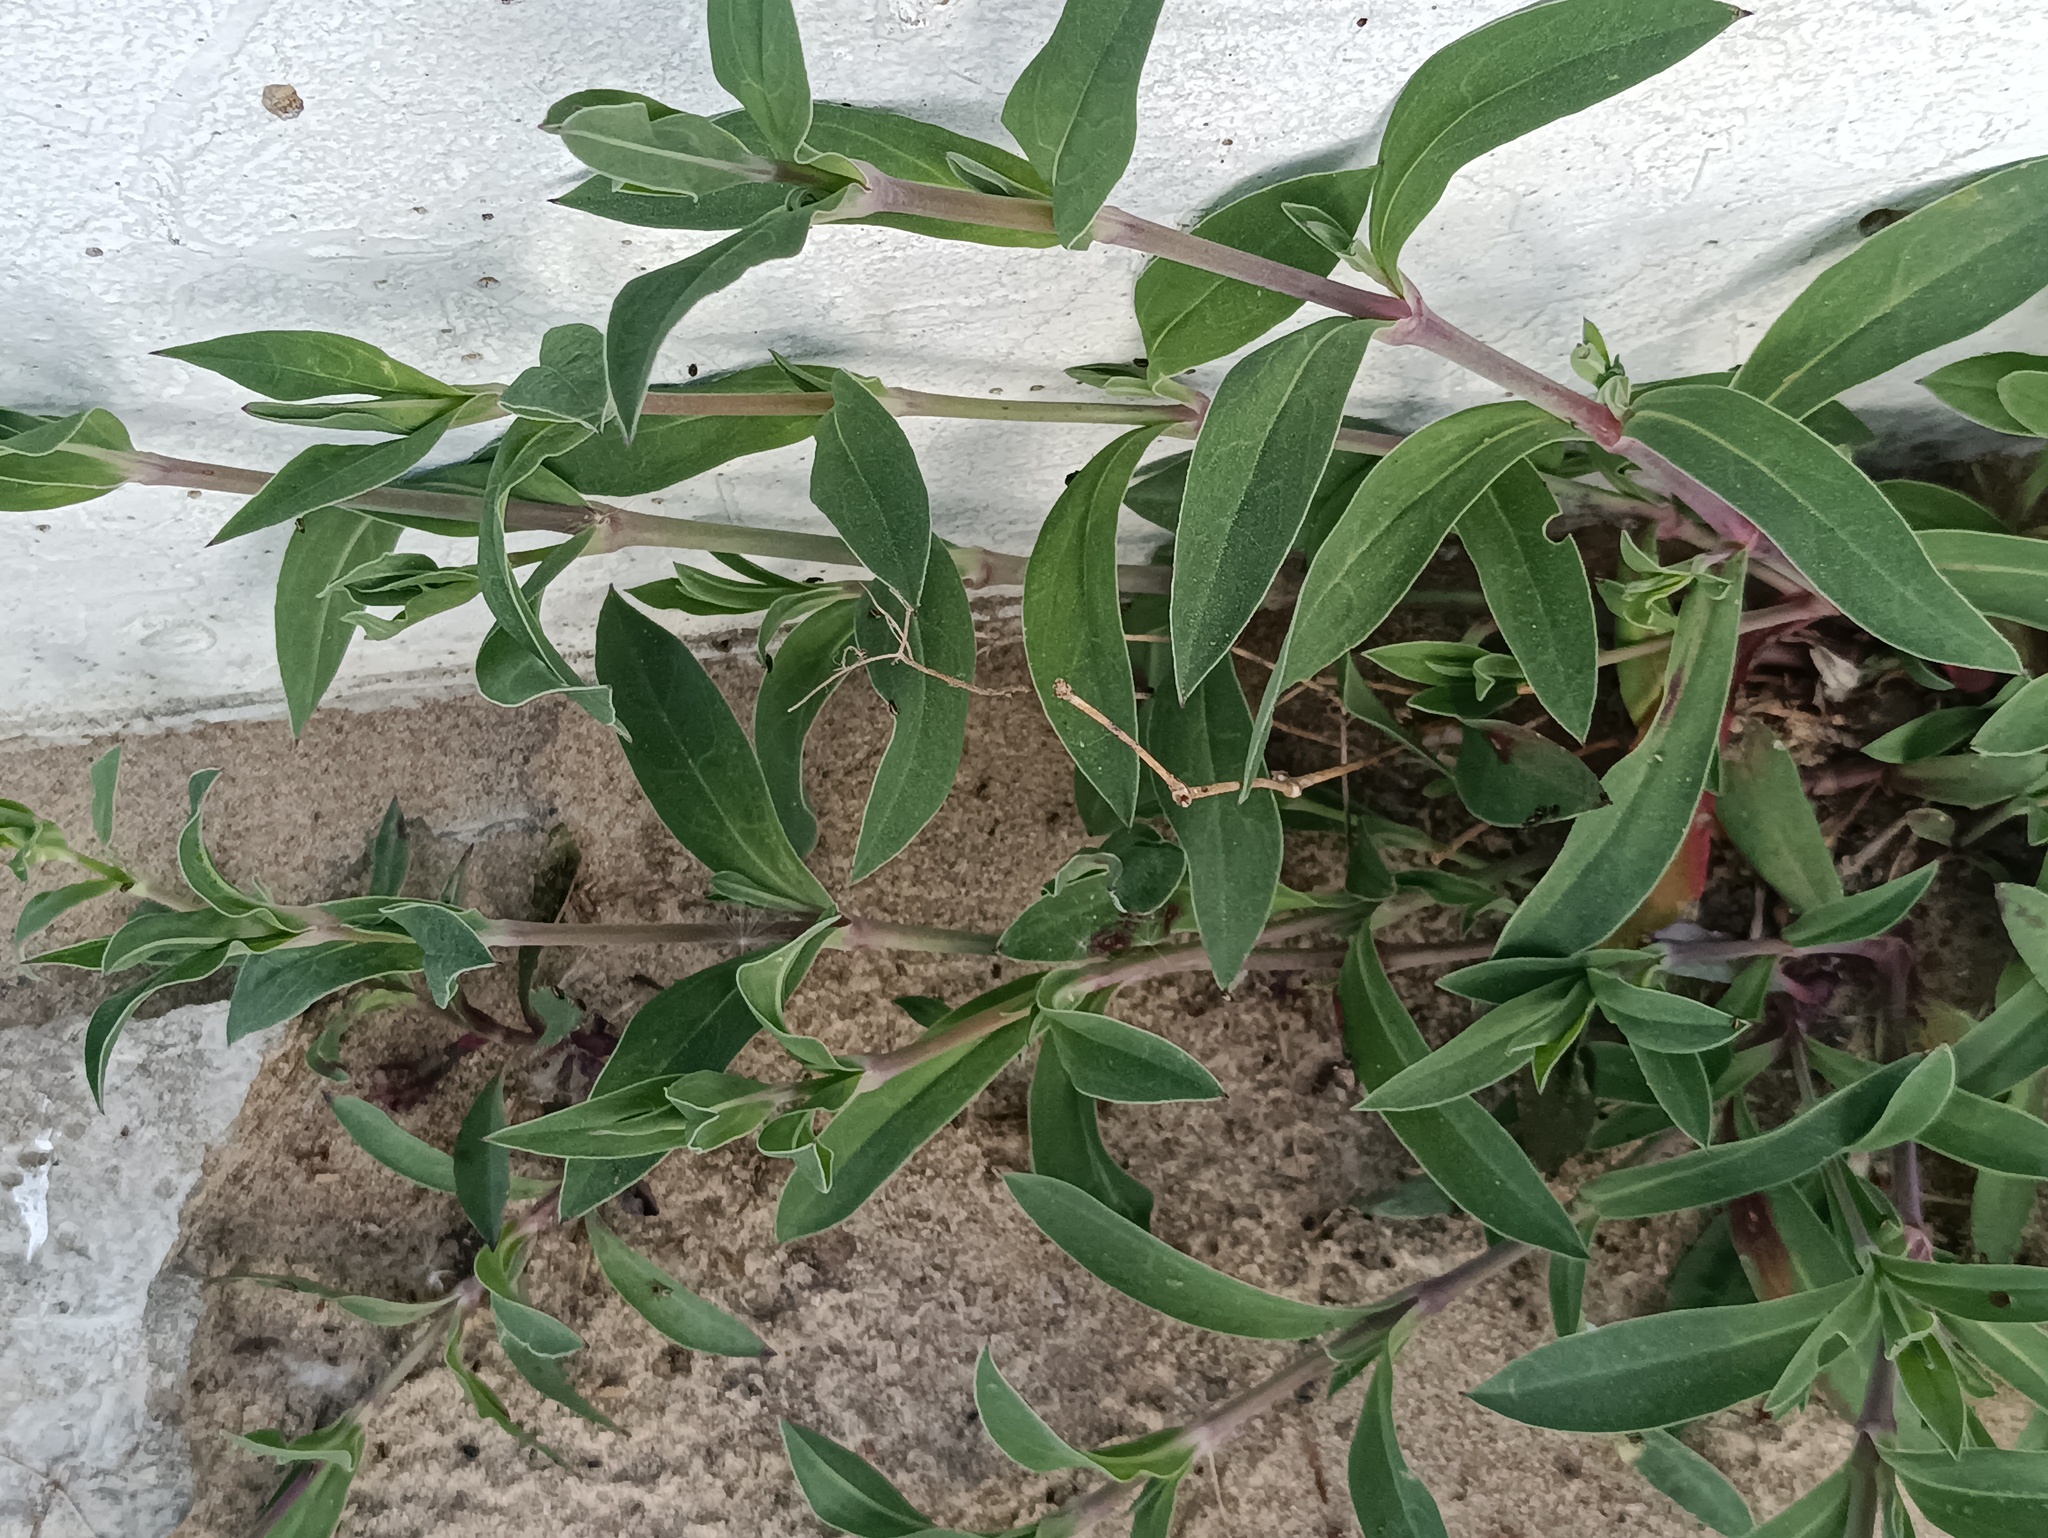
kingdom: Plantae
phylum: Tracheophyta
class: Magnoliopsida
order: Caryophyllales
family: Caryophyllaceae
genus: Silene
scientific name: Silene vulgaris
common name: Bladder campion
